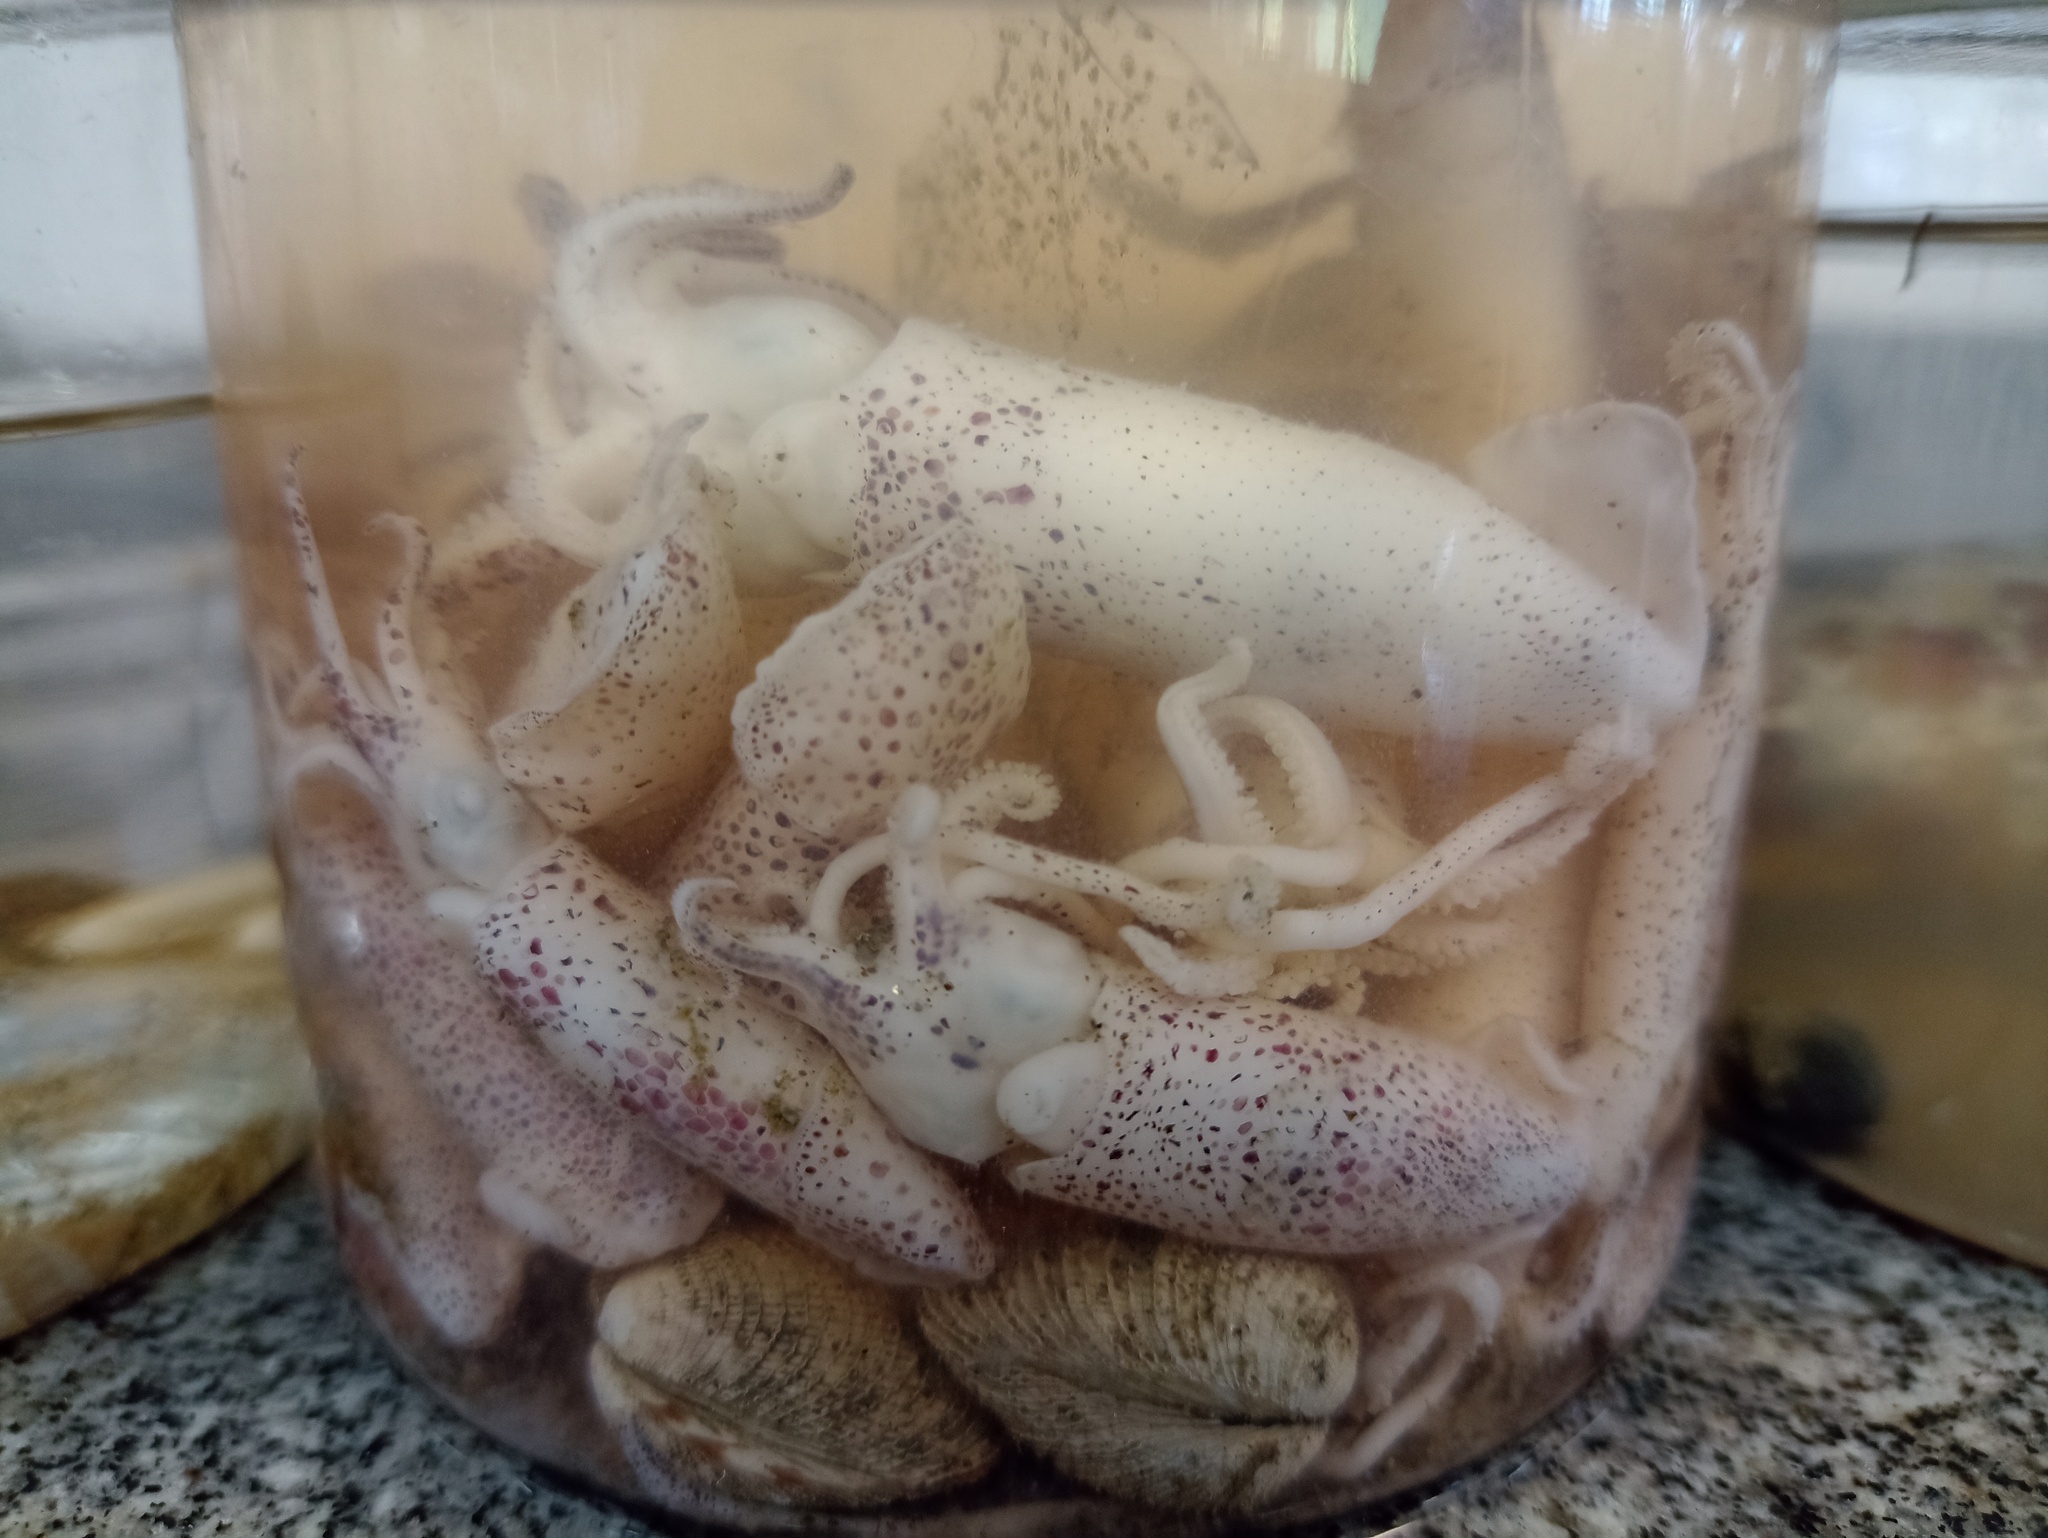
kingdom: Animalia
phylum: Mollusca
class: Cephalopoda
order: Myopsida
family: Loliginidae
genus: Lolliguncula
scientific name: Lolliguncula brevis
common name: Brief squid
